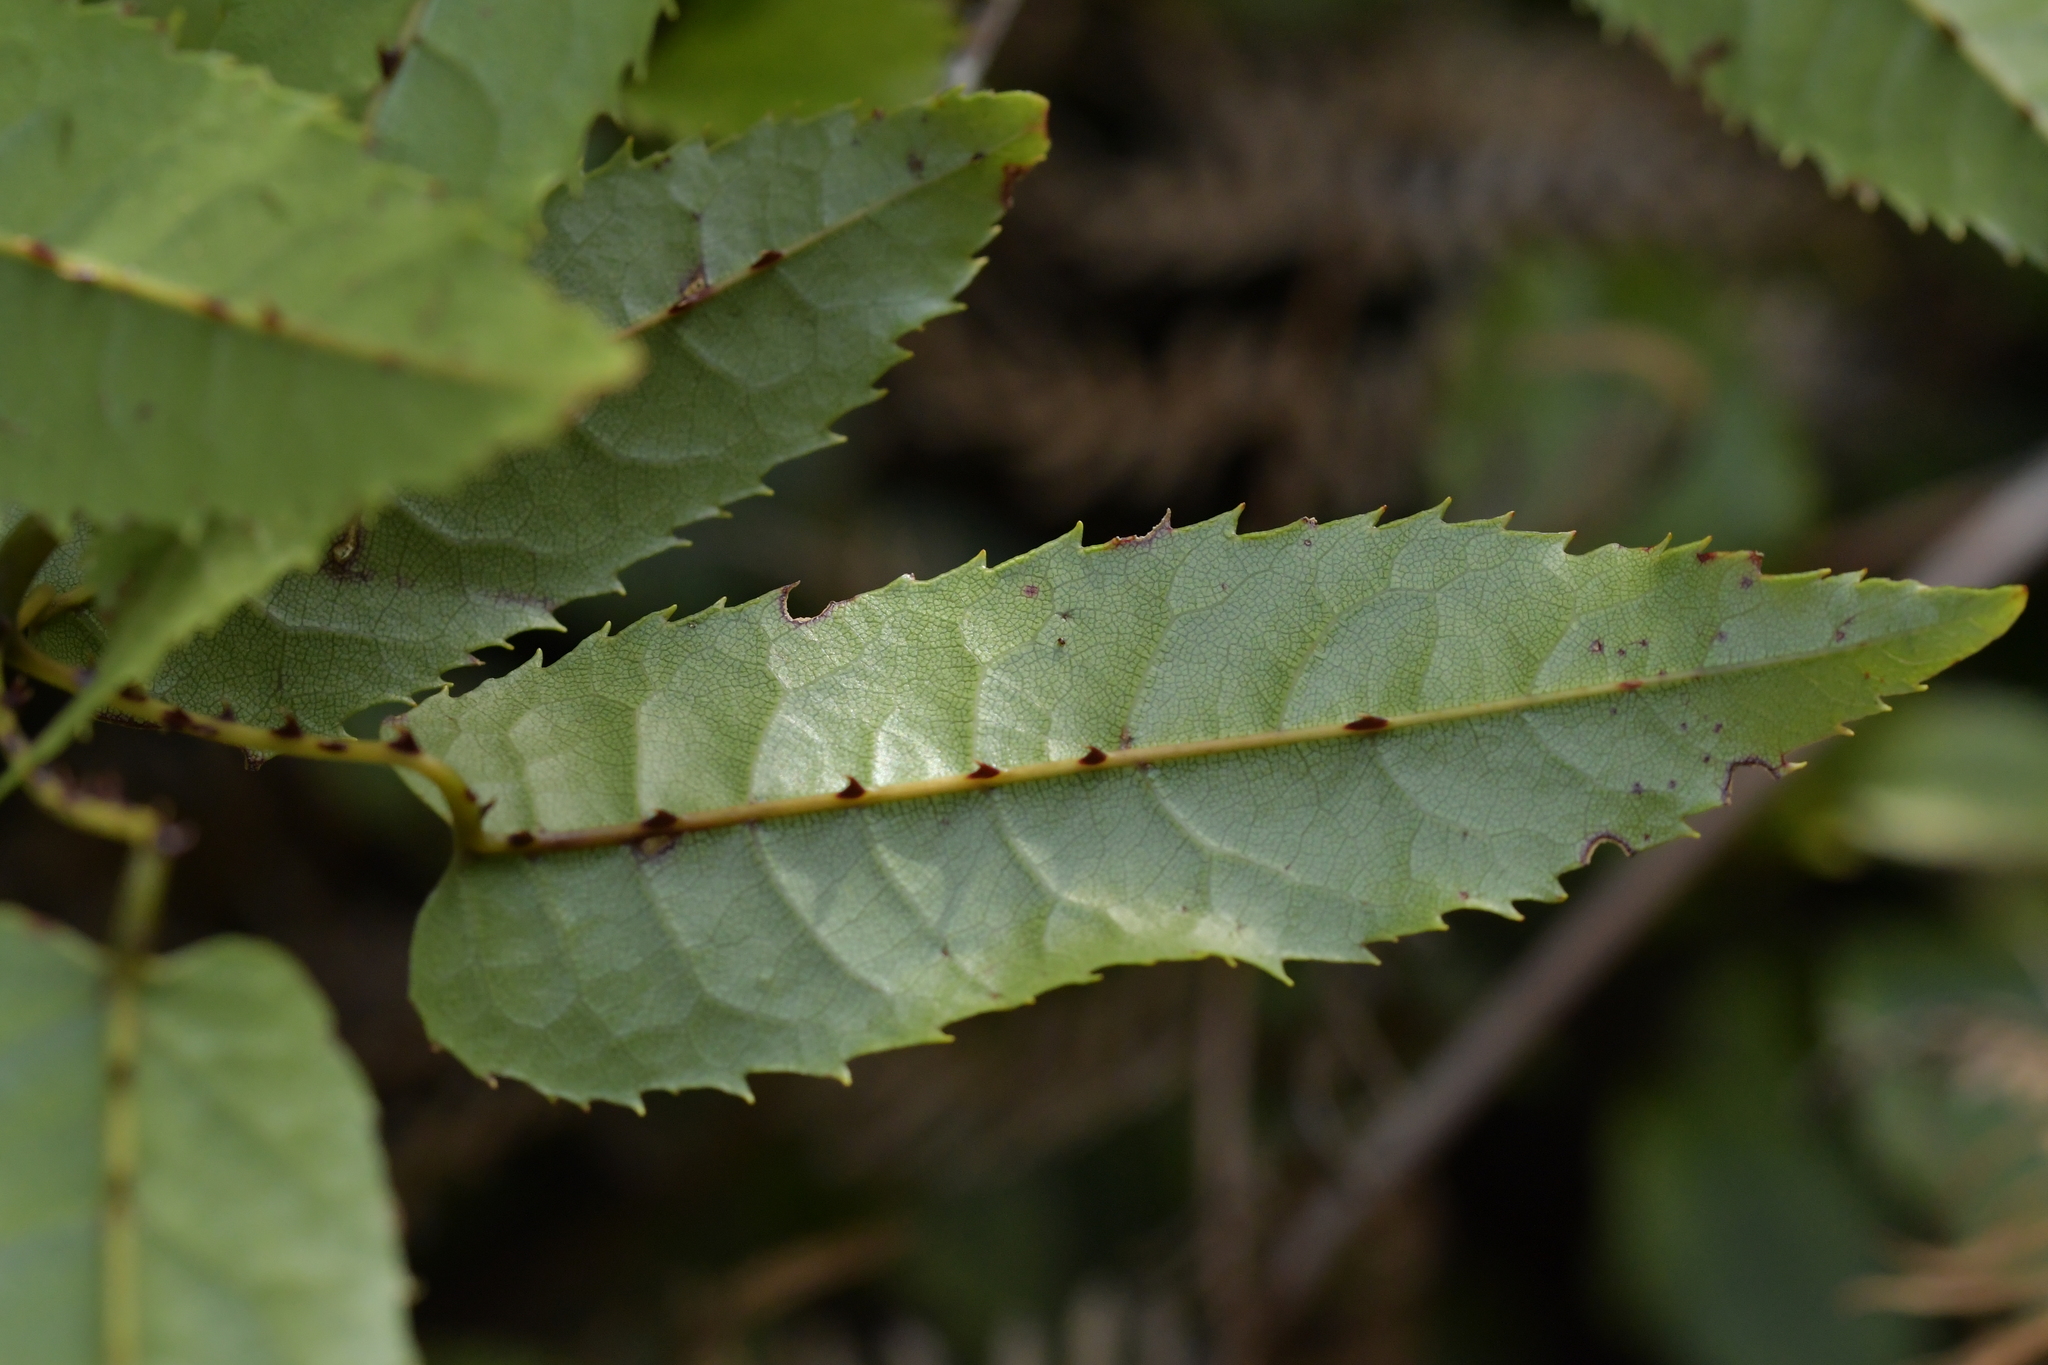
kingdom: Plantae
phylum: Tracheophyta
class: Magnoliopsida
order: Rosales
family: Rosaceae
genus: Rubus
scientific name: Rubus cissoides
